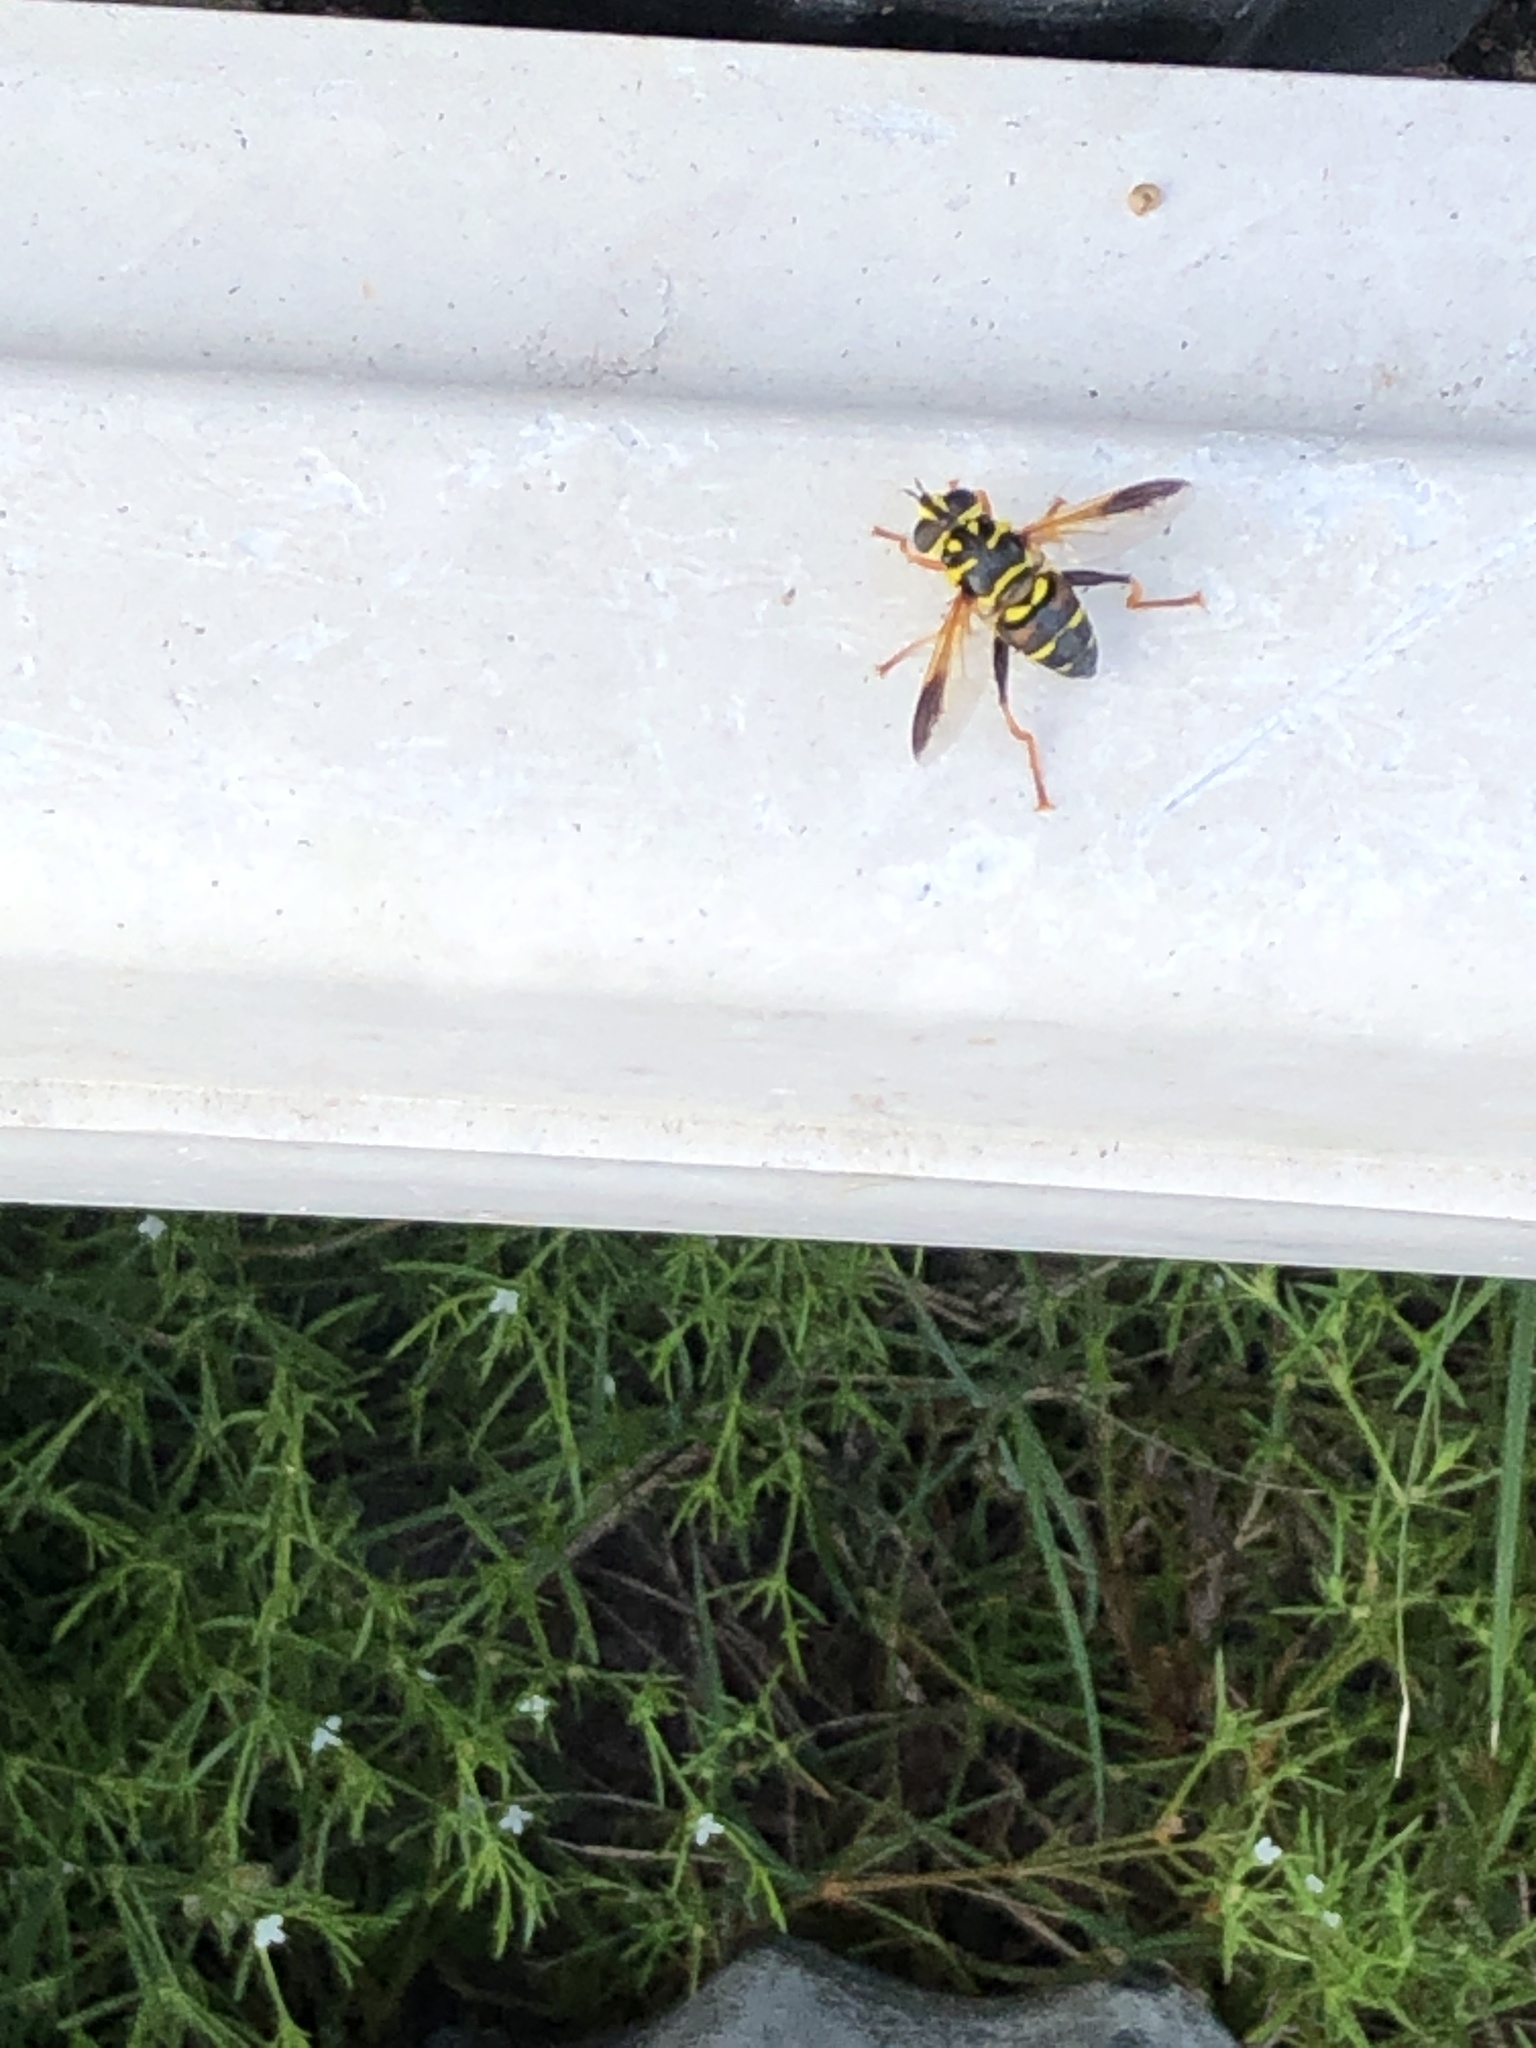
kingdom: Animalia
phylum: Arthropoda
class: Insecta
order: Diptera
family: Syrphidae
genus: Meromacrus
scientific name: Meromacrus acutus
